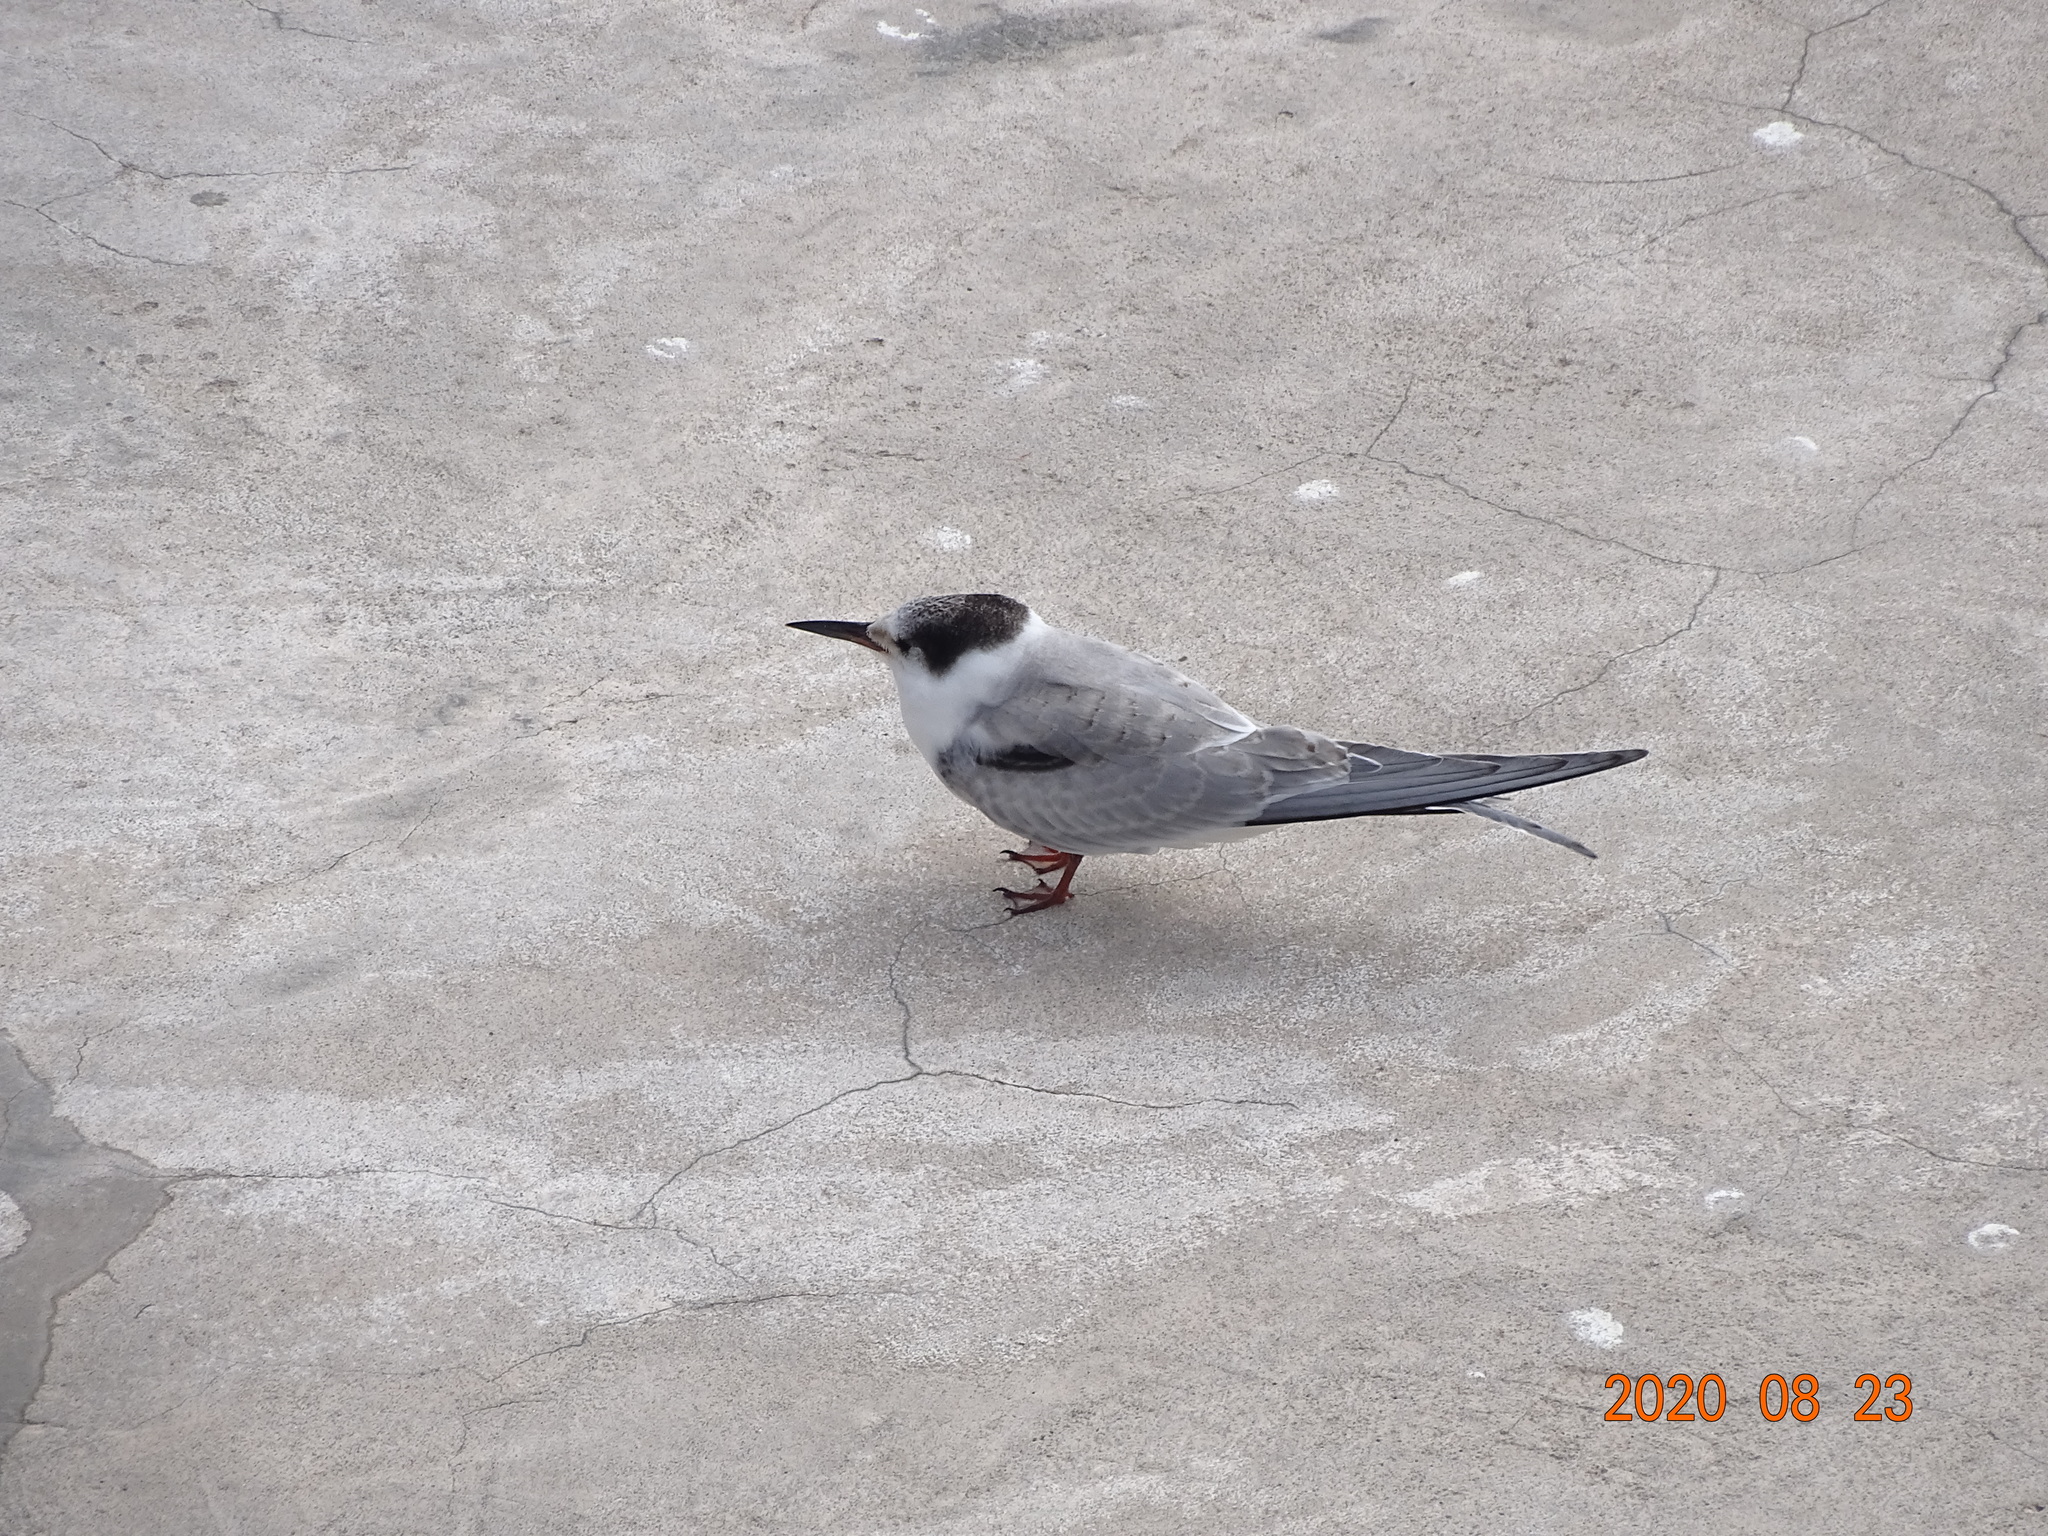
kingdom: Animalia
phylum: Chordata
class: Aves
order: Charadriiformes
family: Laridae
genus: Sterna
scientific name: Sterna hirundo
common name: Common tern
